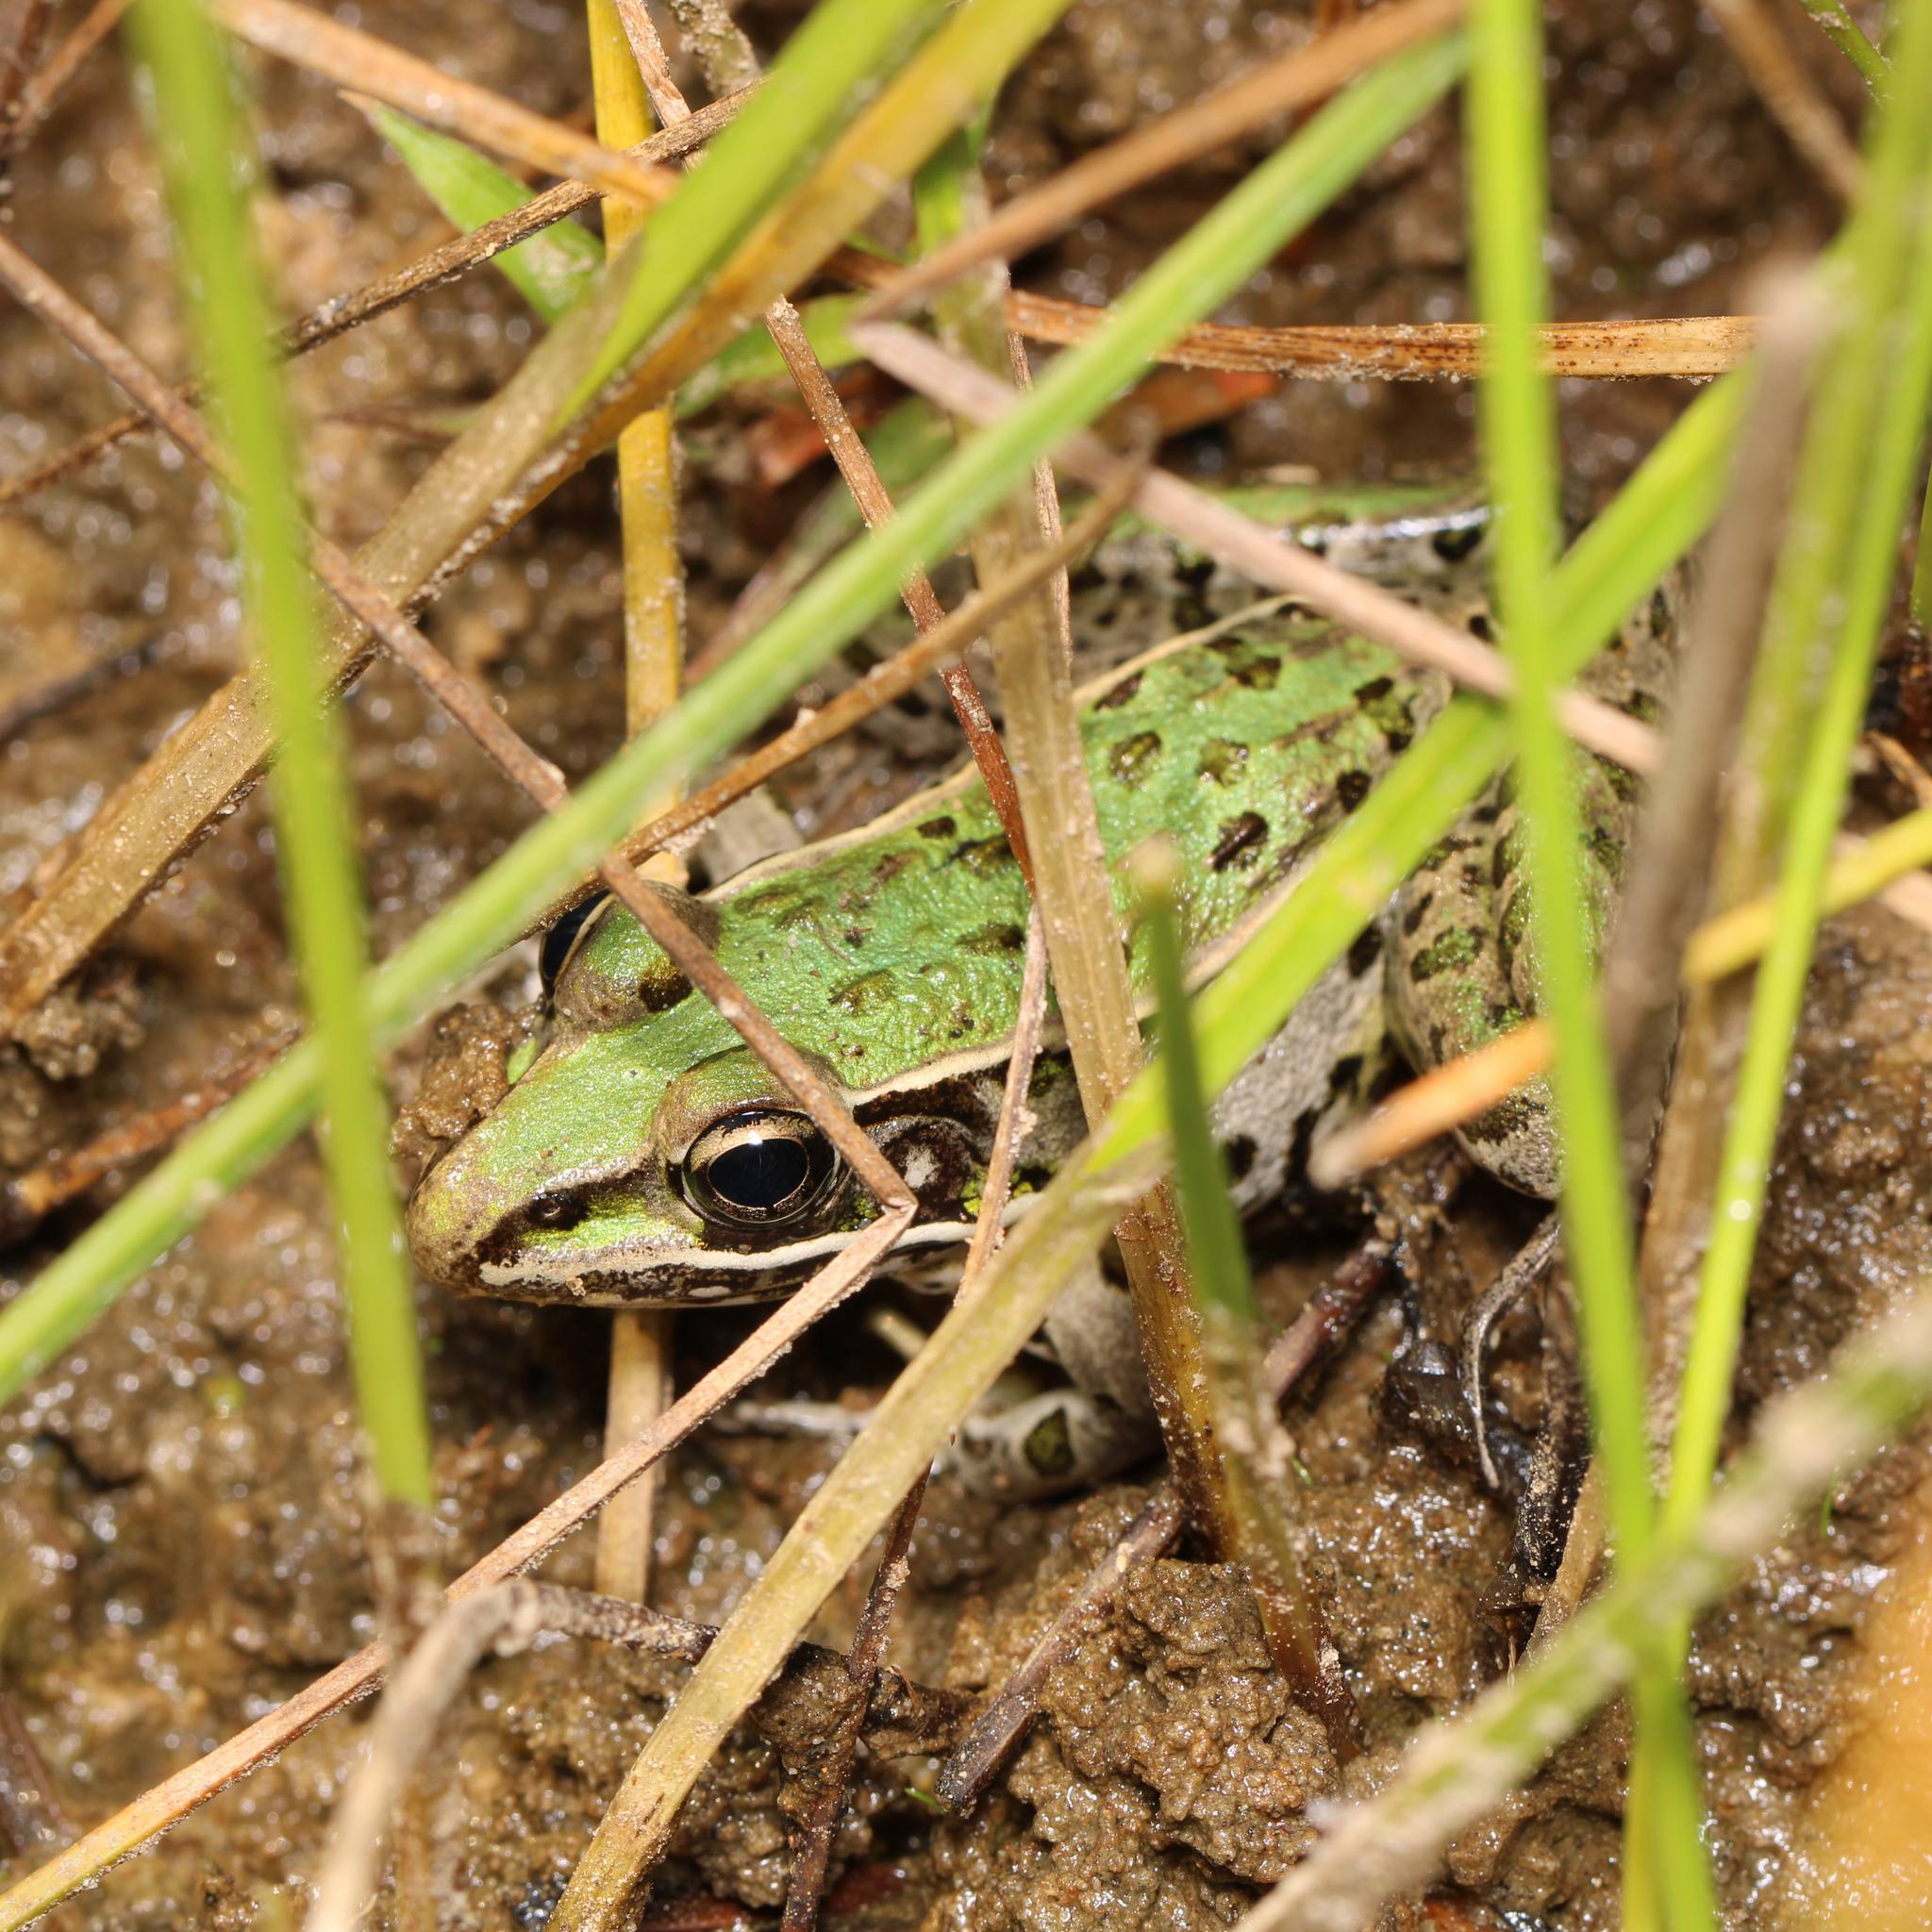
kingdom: Animalia
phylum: Chordata
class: Amphibia
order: Anura
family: Ranidae
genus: Lithobates
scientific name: Lithobates sphenocephalus
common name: Southern leopard frog
